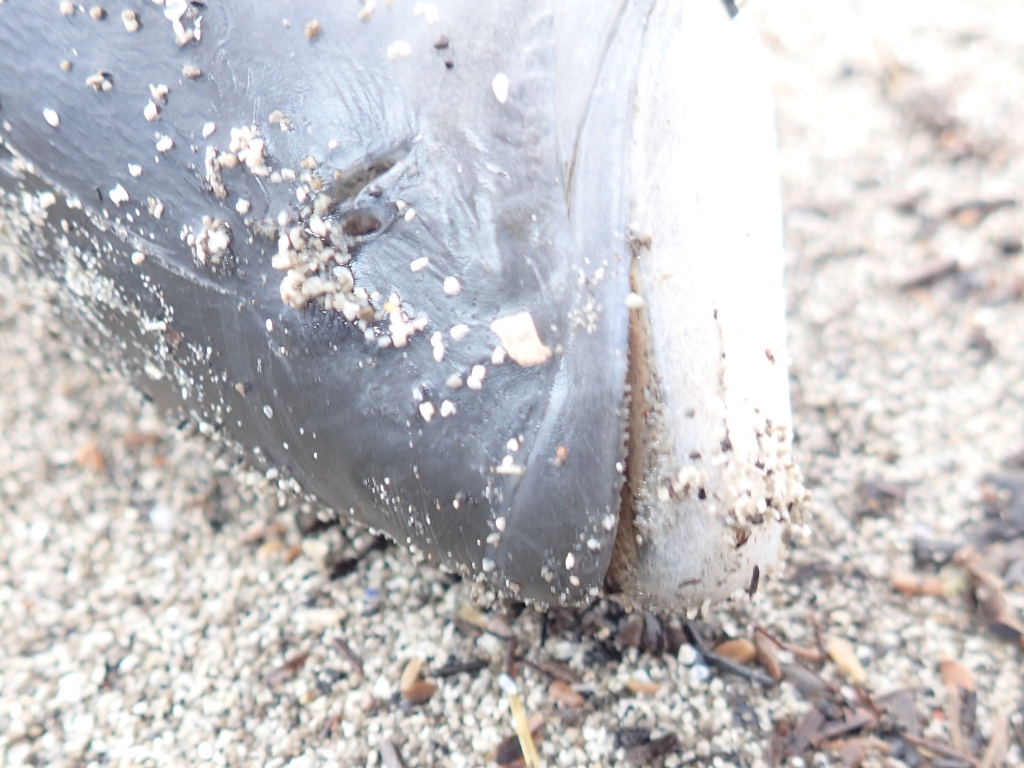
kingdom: Animalia
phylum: Chordata
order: Perciformes
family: Arripidae
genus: Arripis
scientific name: Arripis trutta
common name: Kahawai
